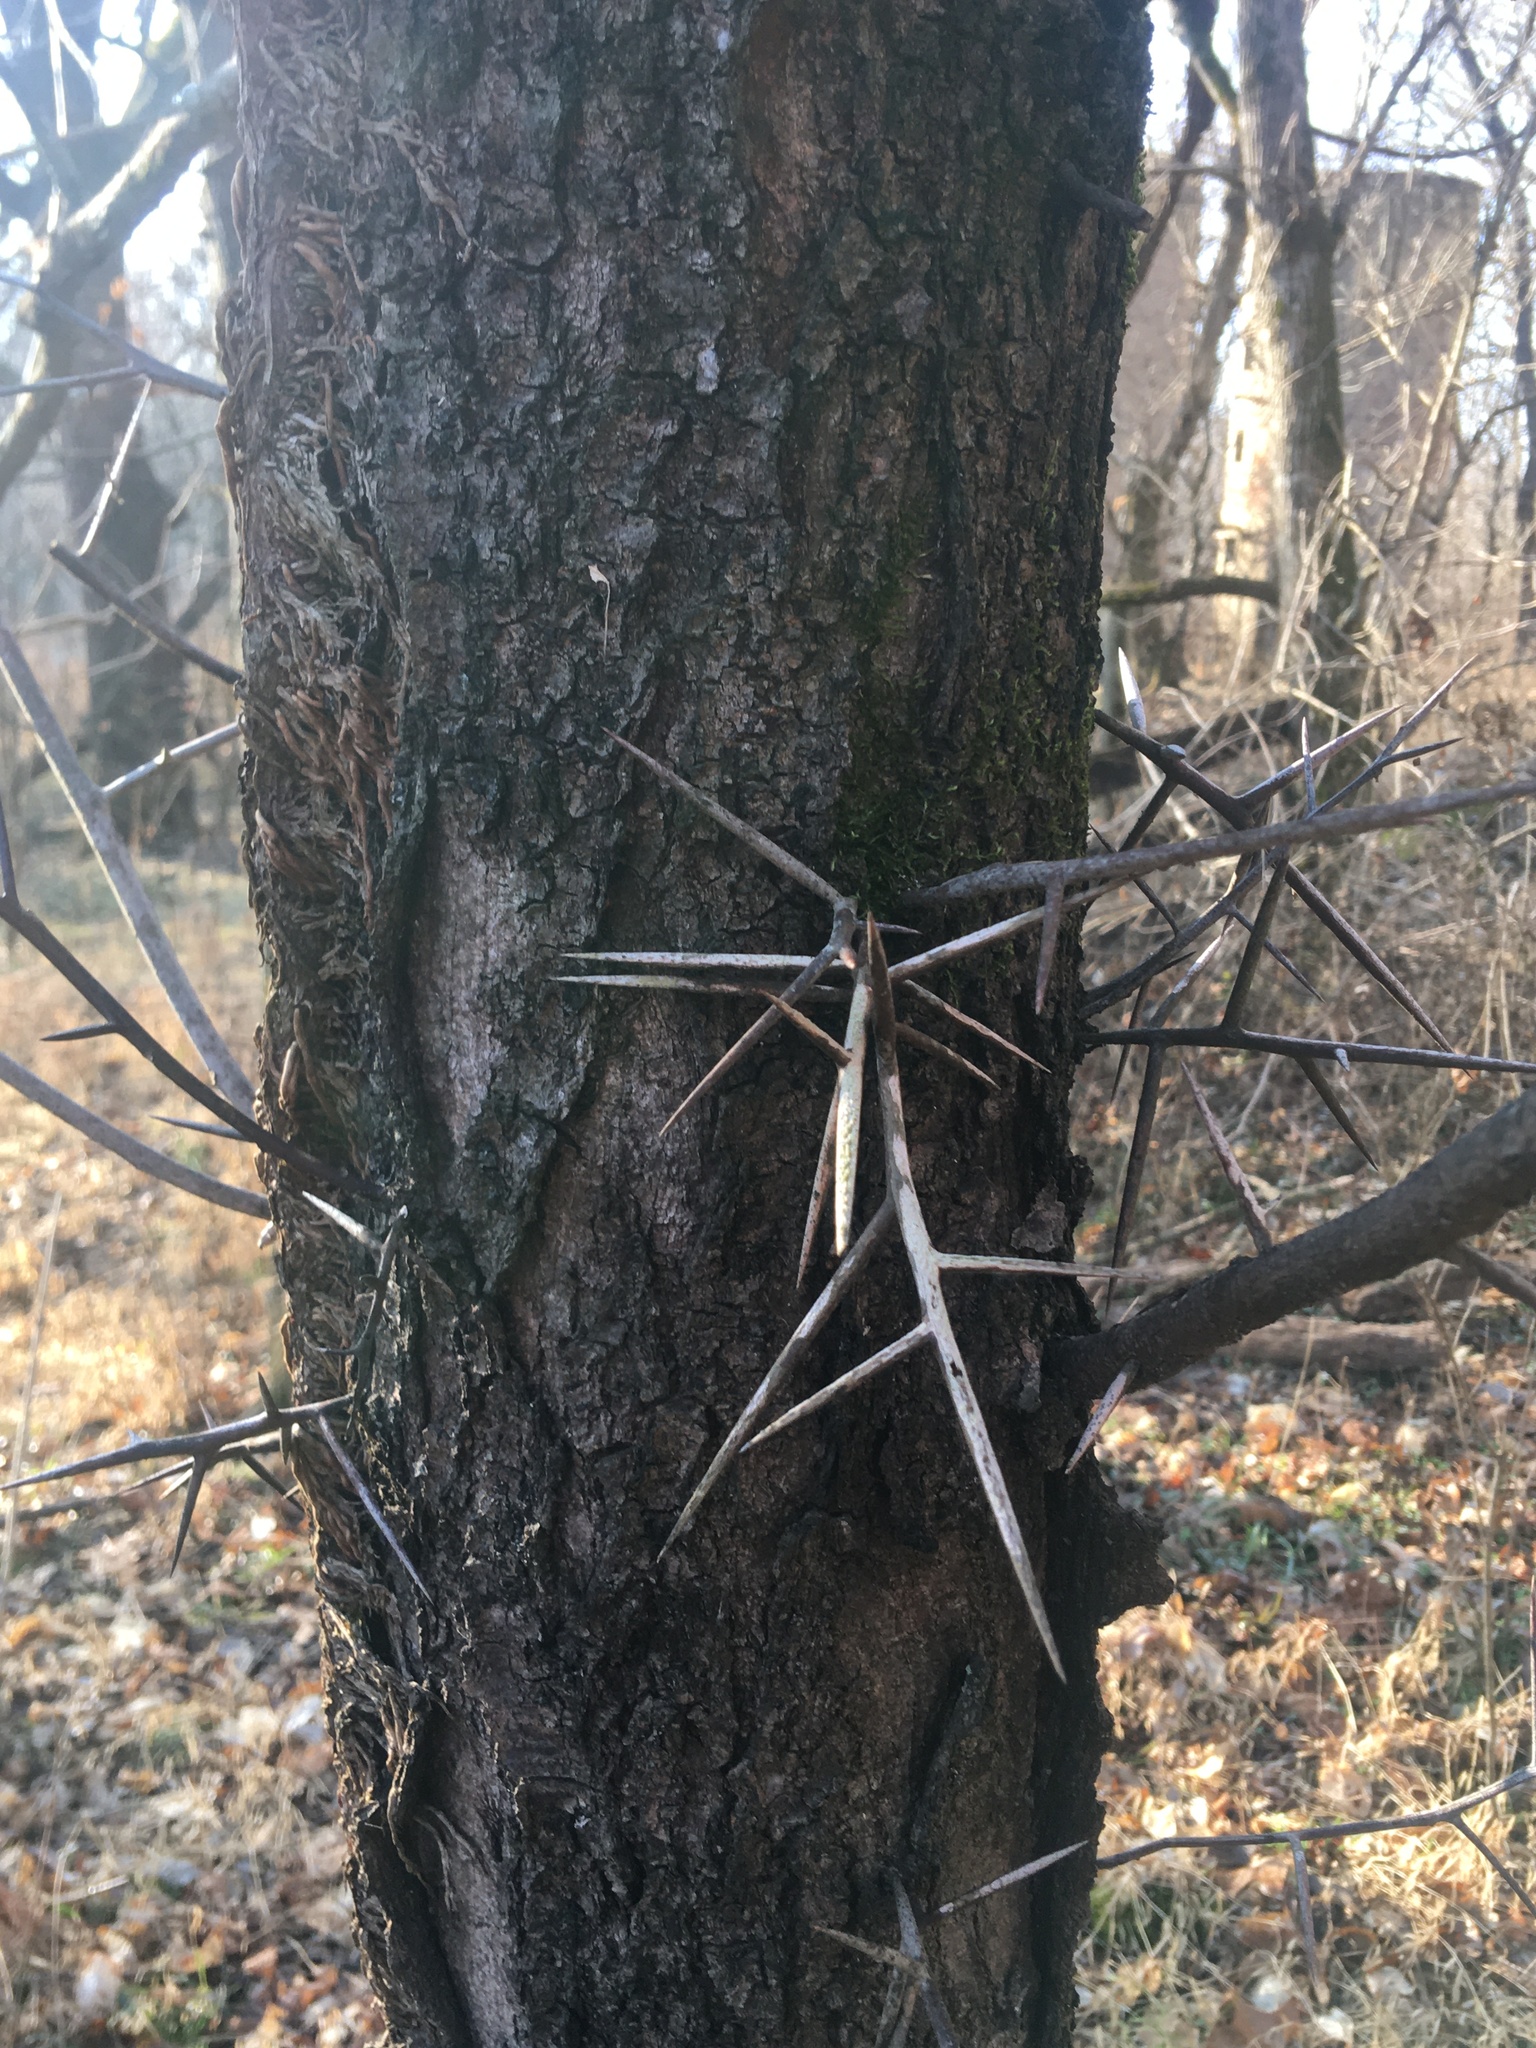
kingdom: Plantae
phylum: Tracheophyta
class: Magnoliopsida
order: Fabales
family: Fabaceae
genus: Gleditsia
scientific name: Gleditsia triacanthos
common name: Common honeylocust
